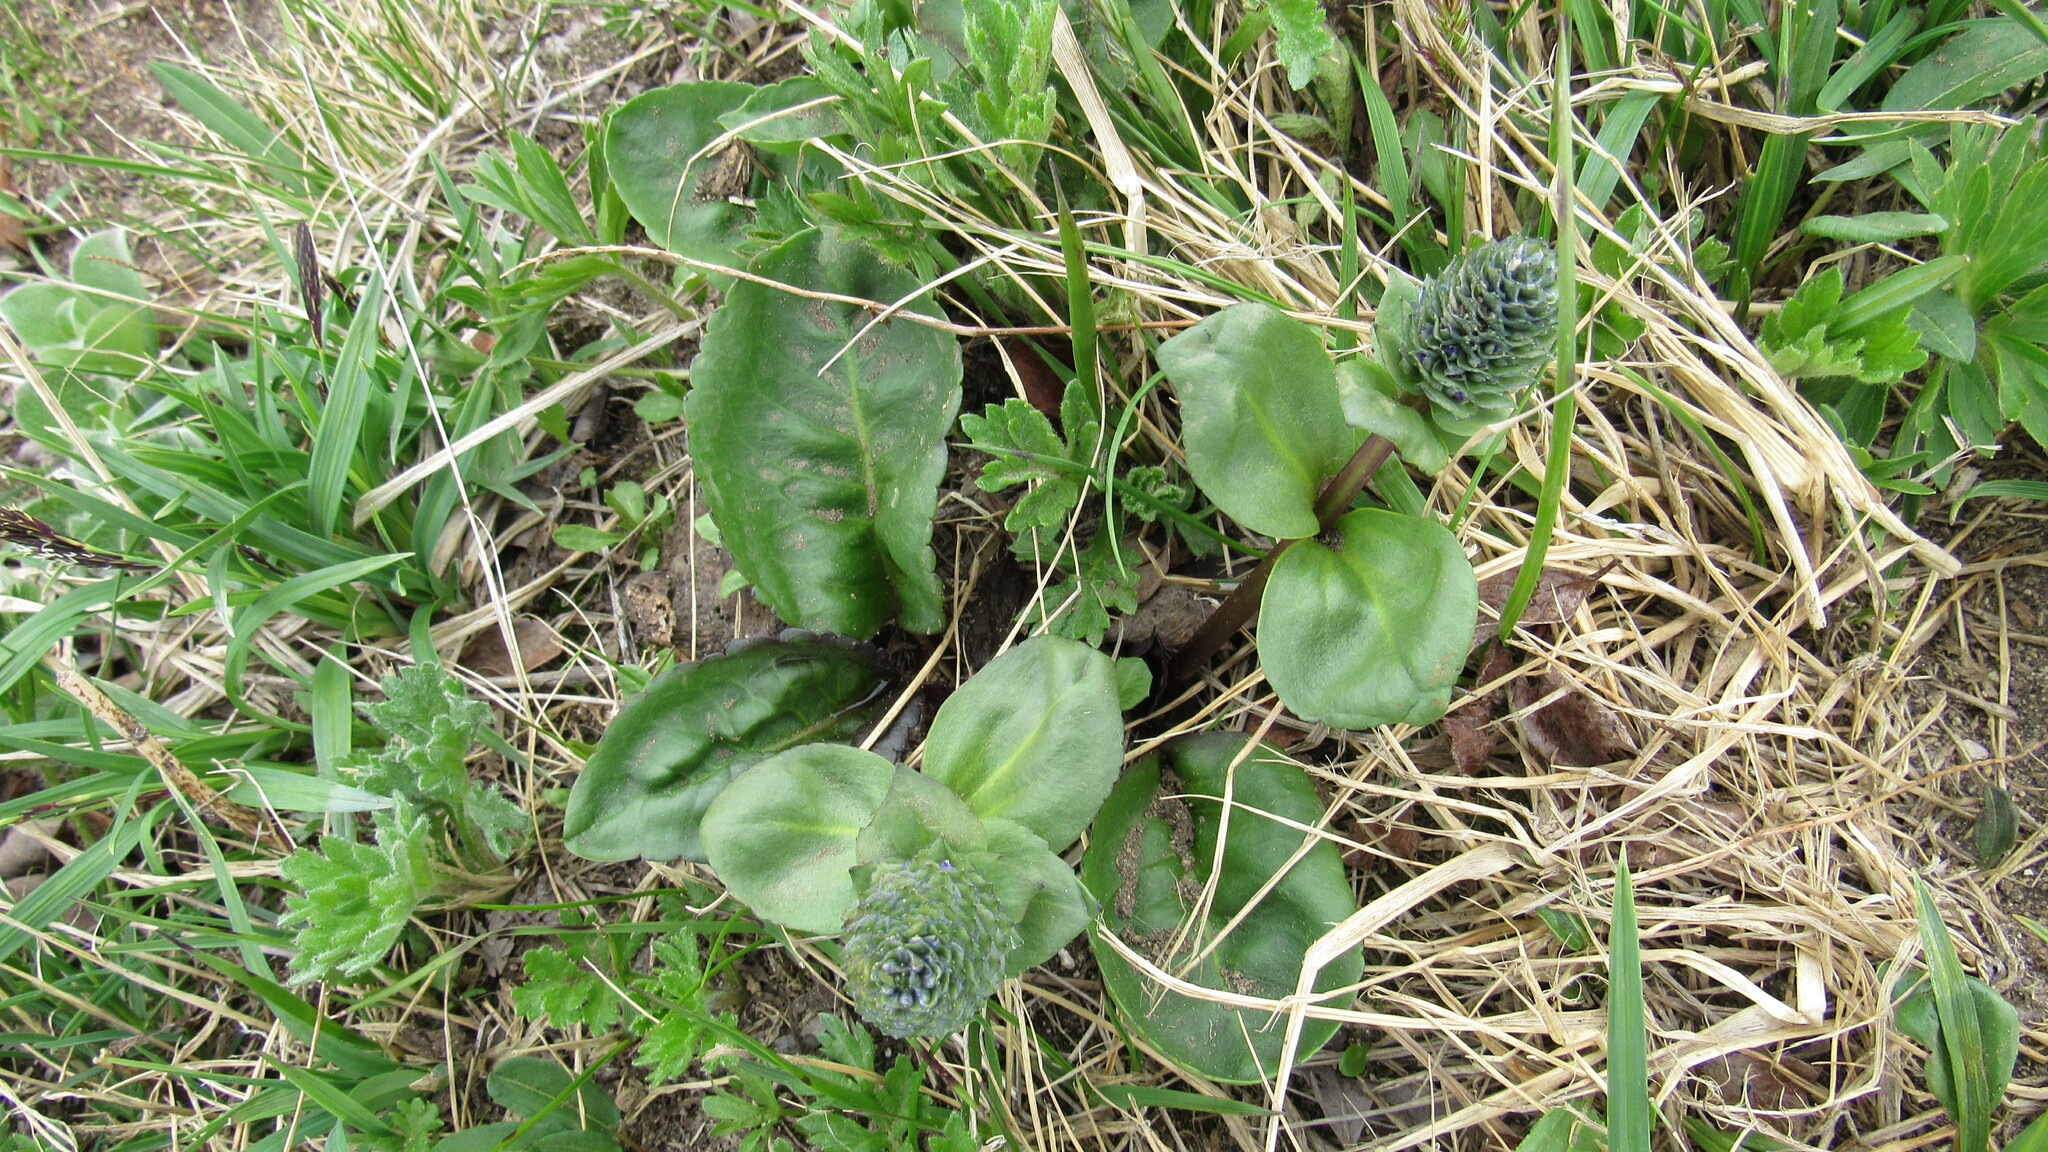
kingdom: Plantae
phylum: Tracheophyta
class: Magnoliopsida
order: Lamiales
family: Plantaginaceae
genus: Lagotis
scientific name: Lagotis glauca
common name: Glaucous weaselsnout
